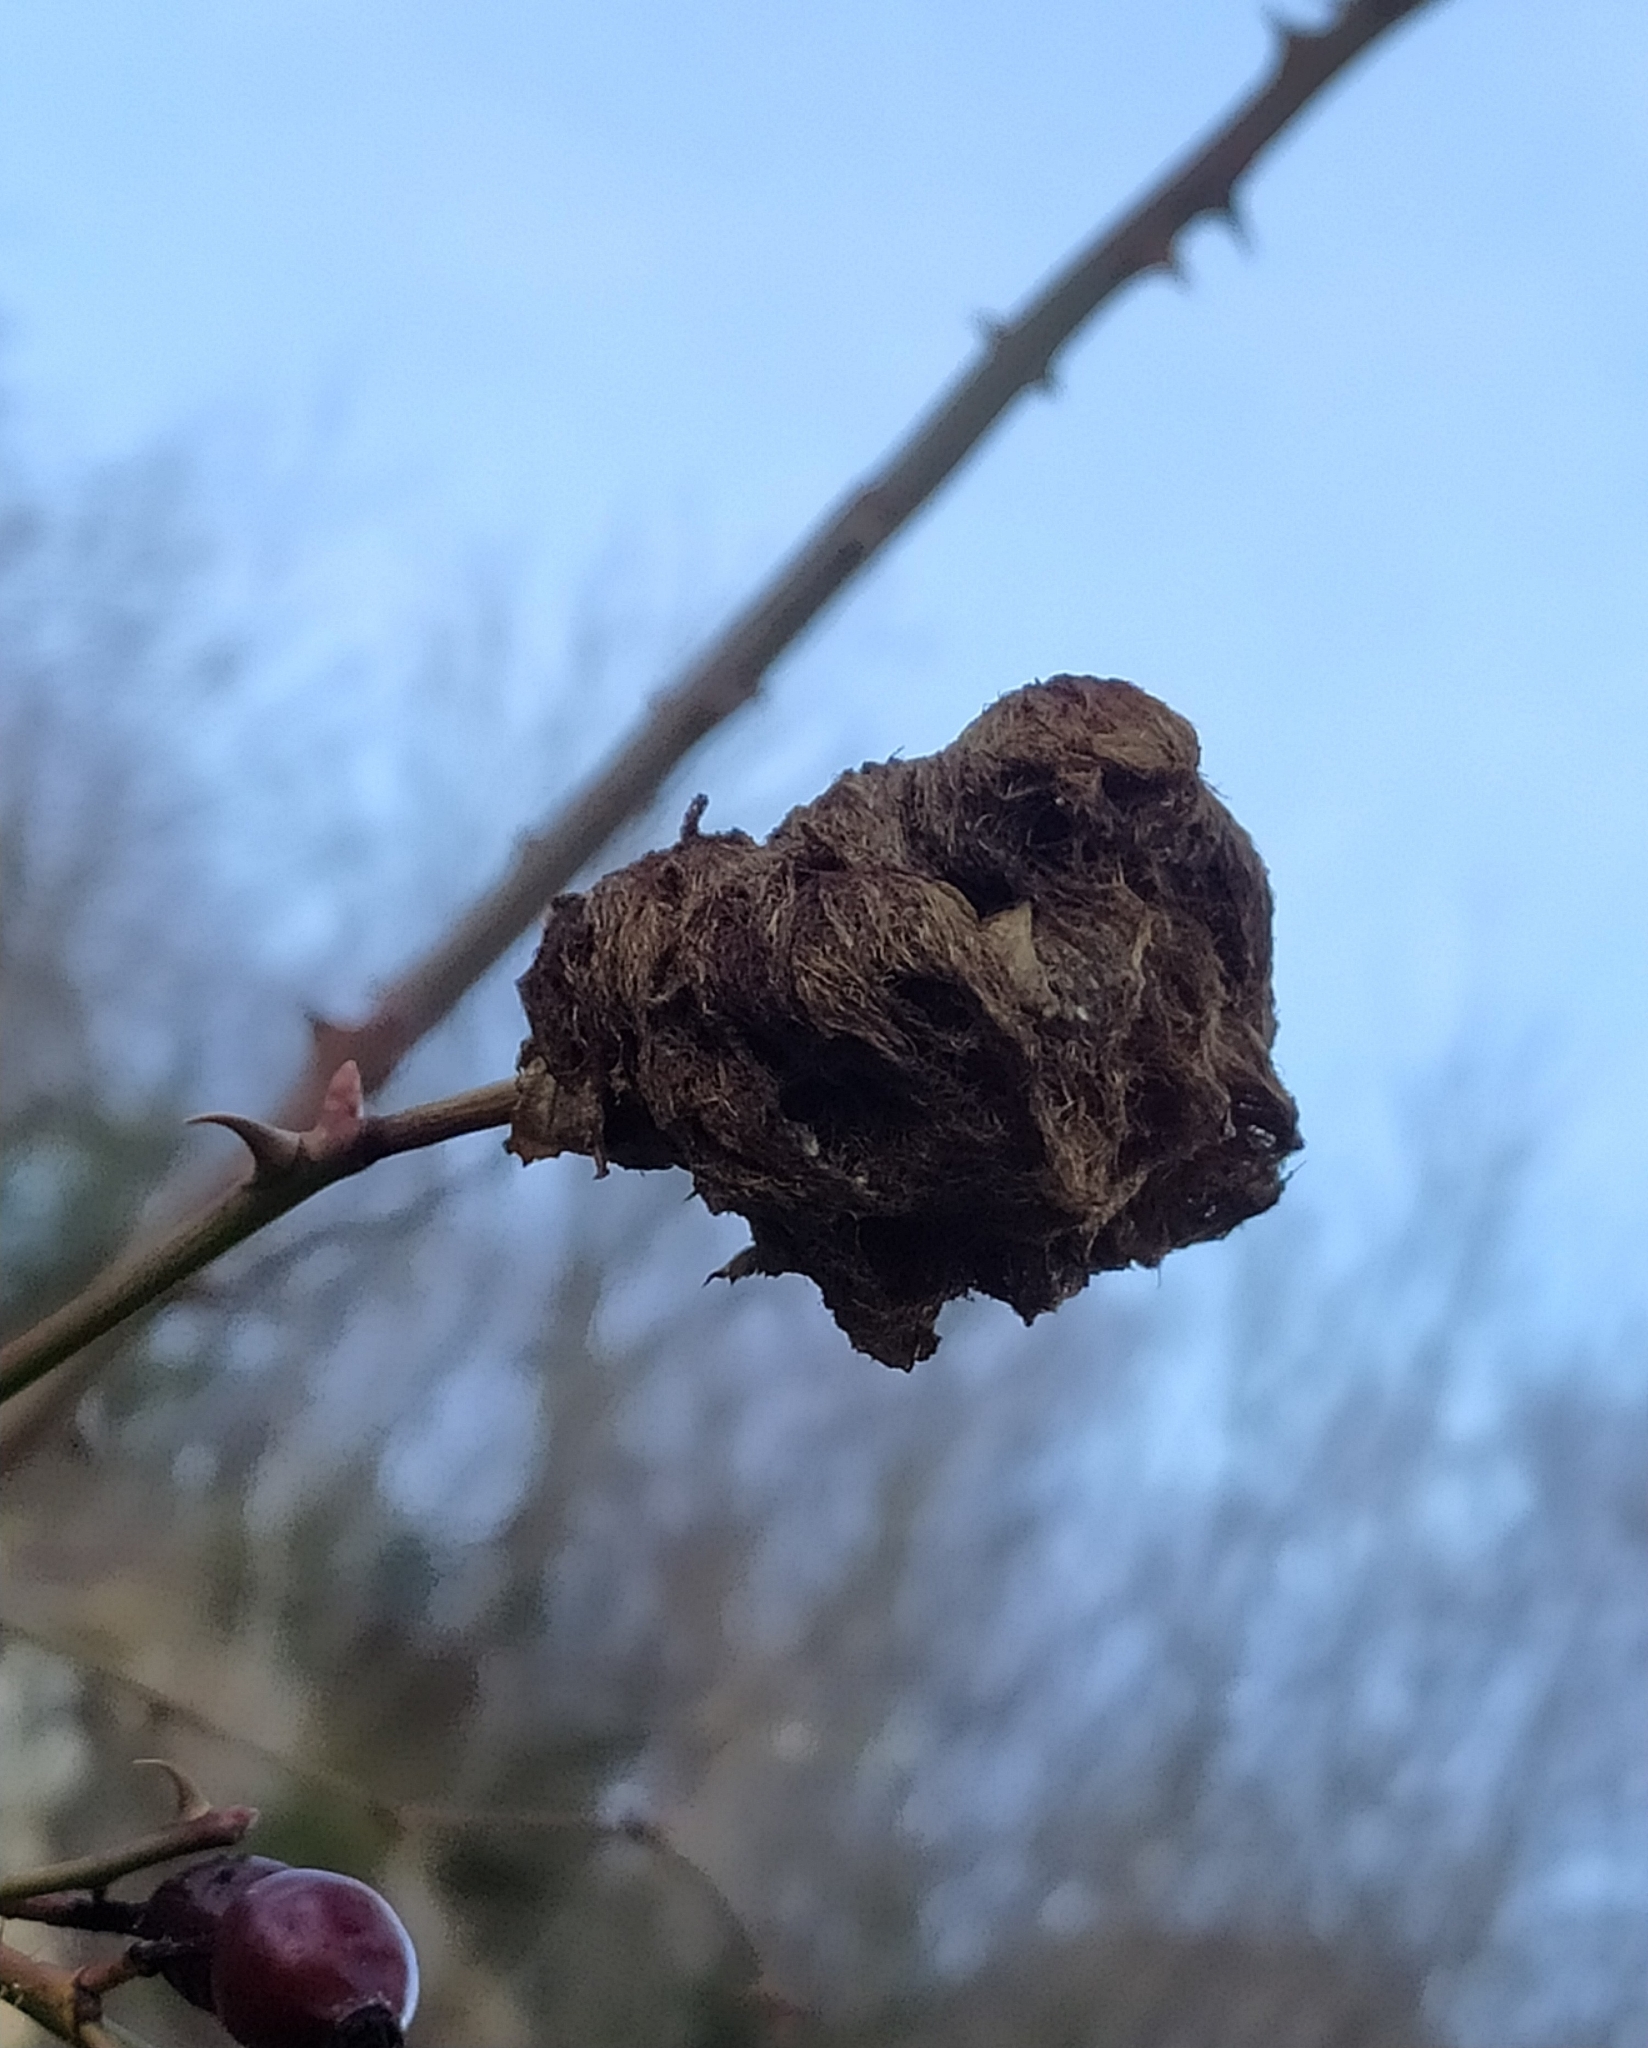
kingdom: Animalia
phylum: Arthropoda
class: Insecta
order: Hymenoptera
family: Cynipidae
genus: Diplolepis
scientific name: Diplolepis rosae
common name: Bedeguar gall
